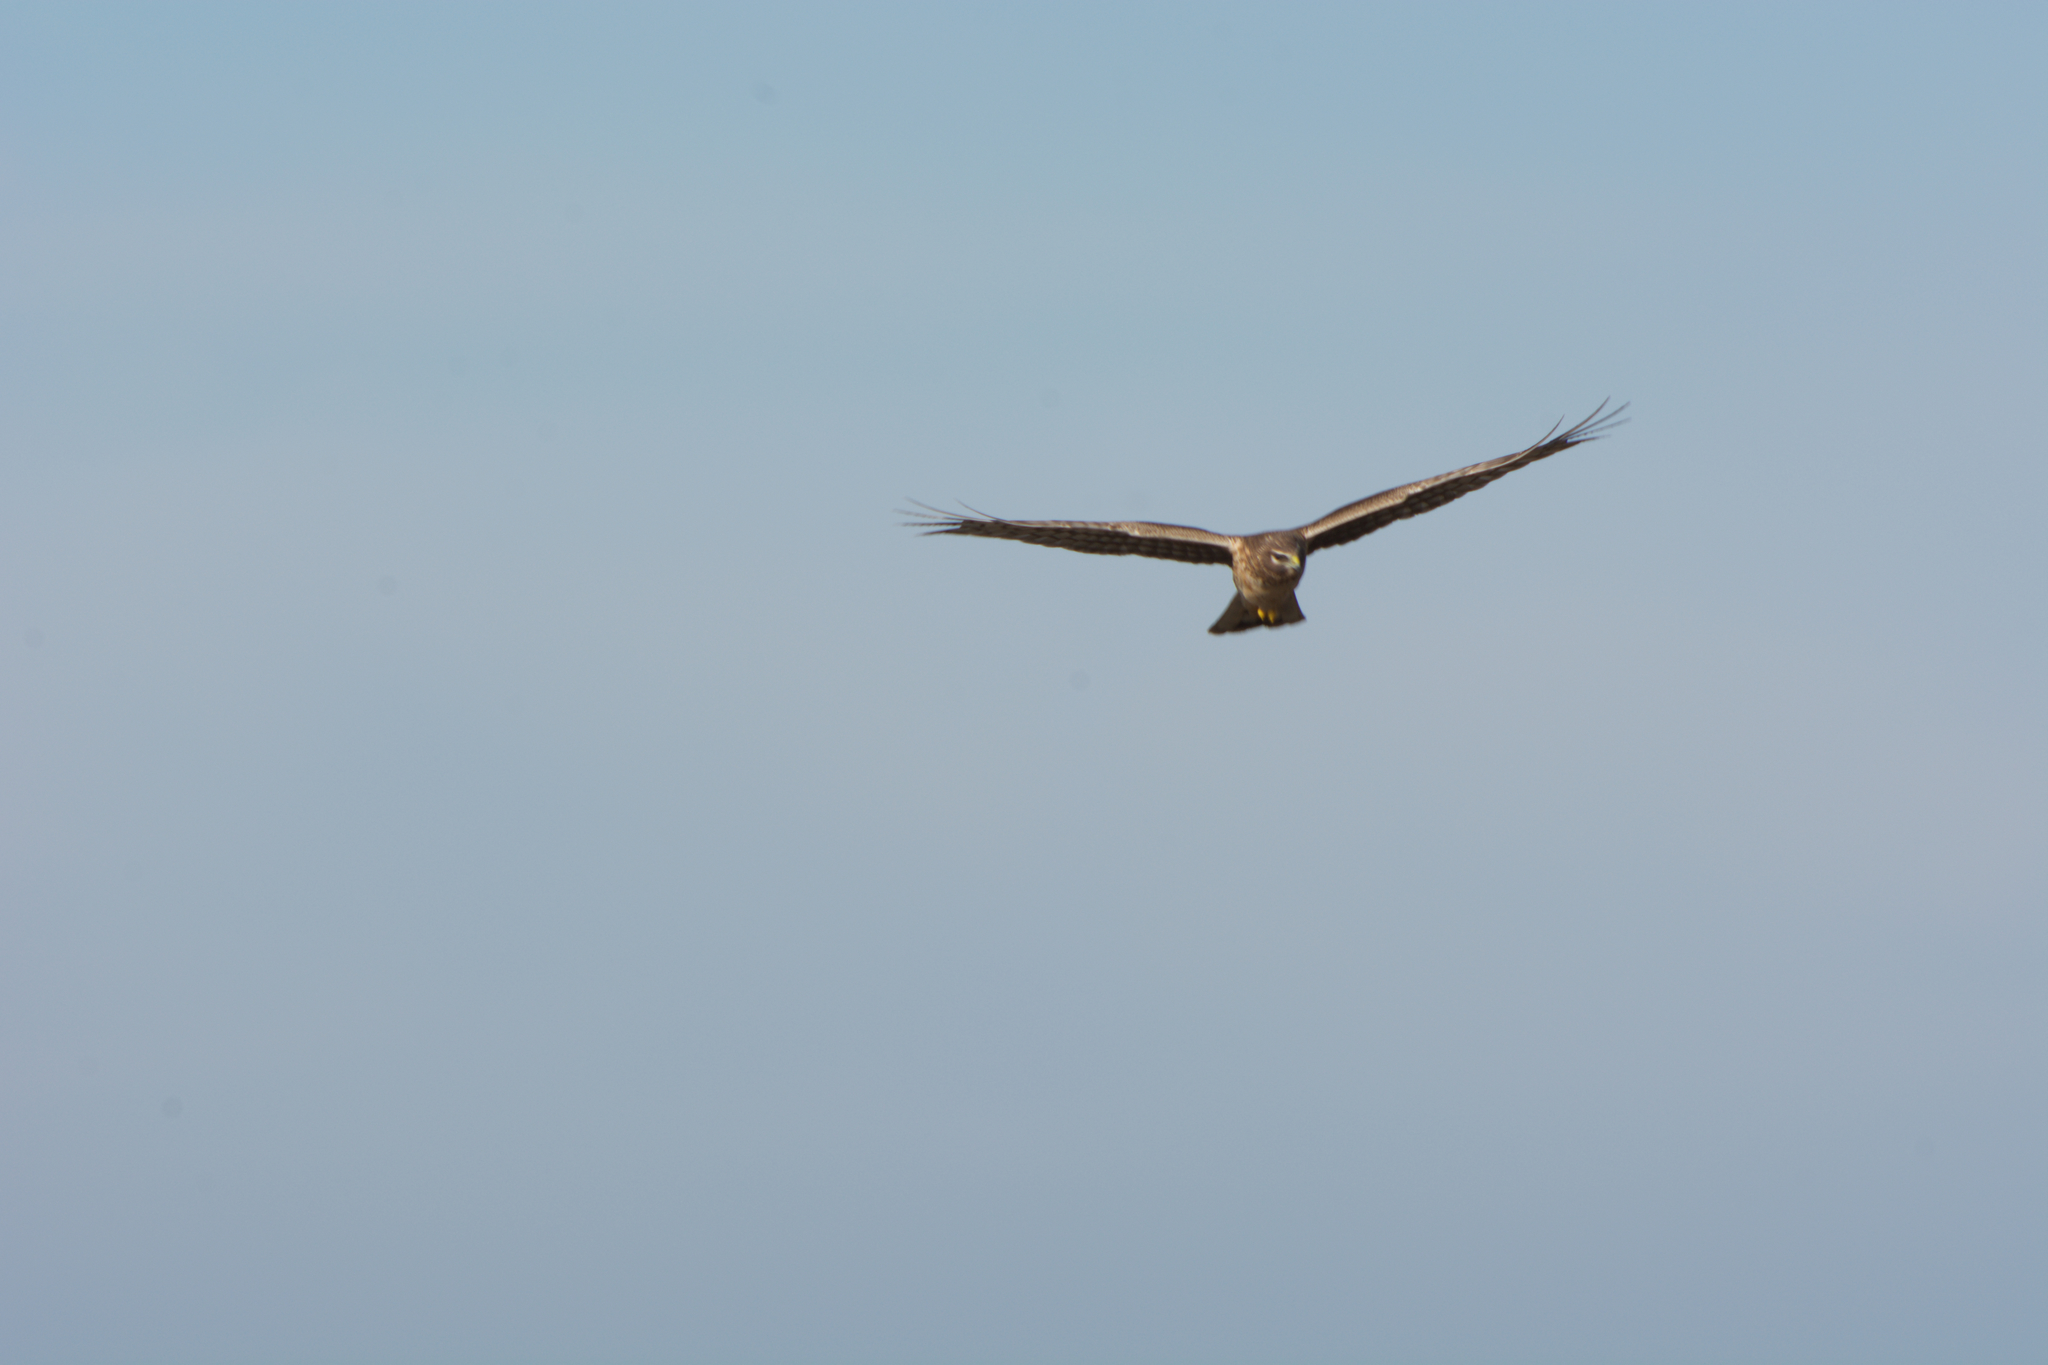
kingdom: Animalia
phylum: Chordata
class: Aves
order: Accipitriformes
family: Accipitridae
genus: Circus
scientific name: Circus cyaneus
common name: Hen harrier
